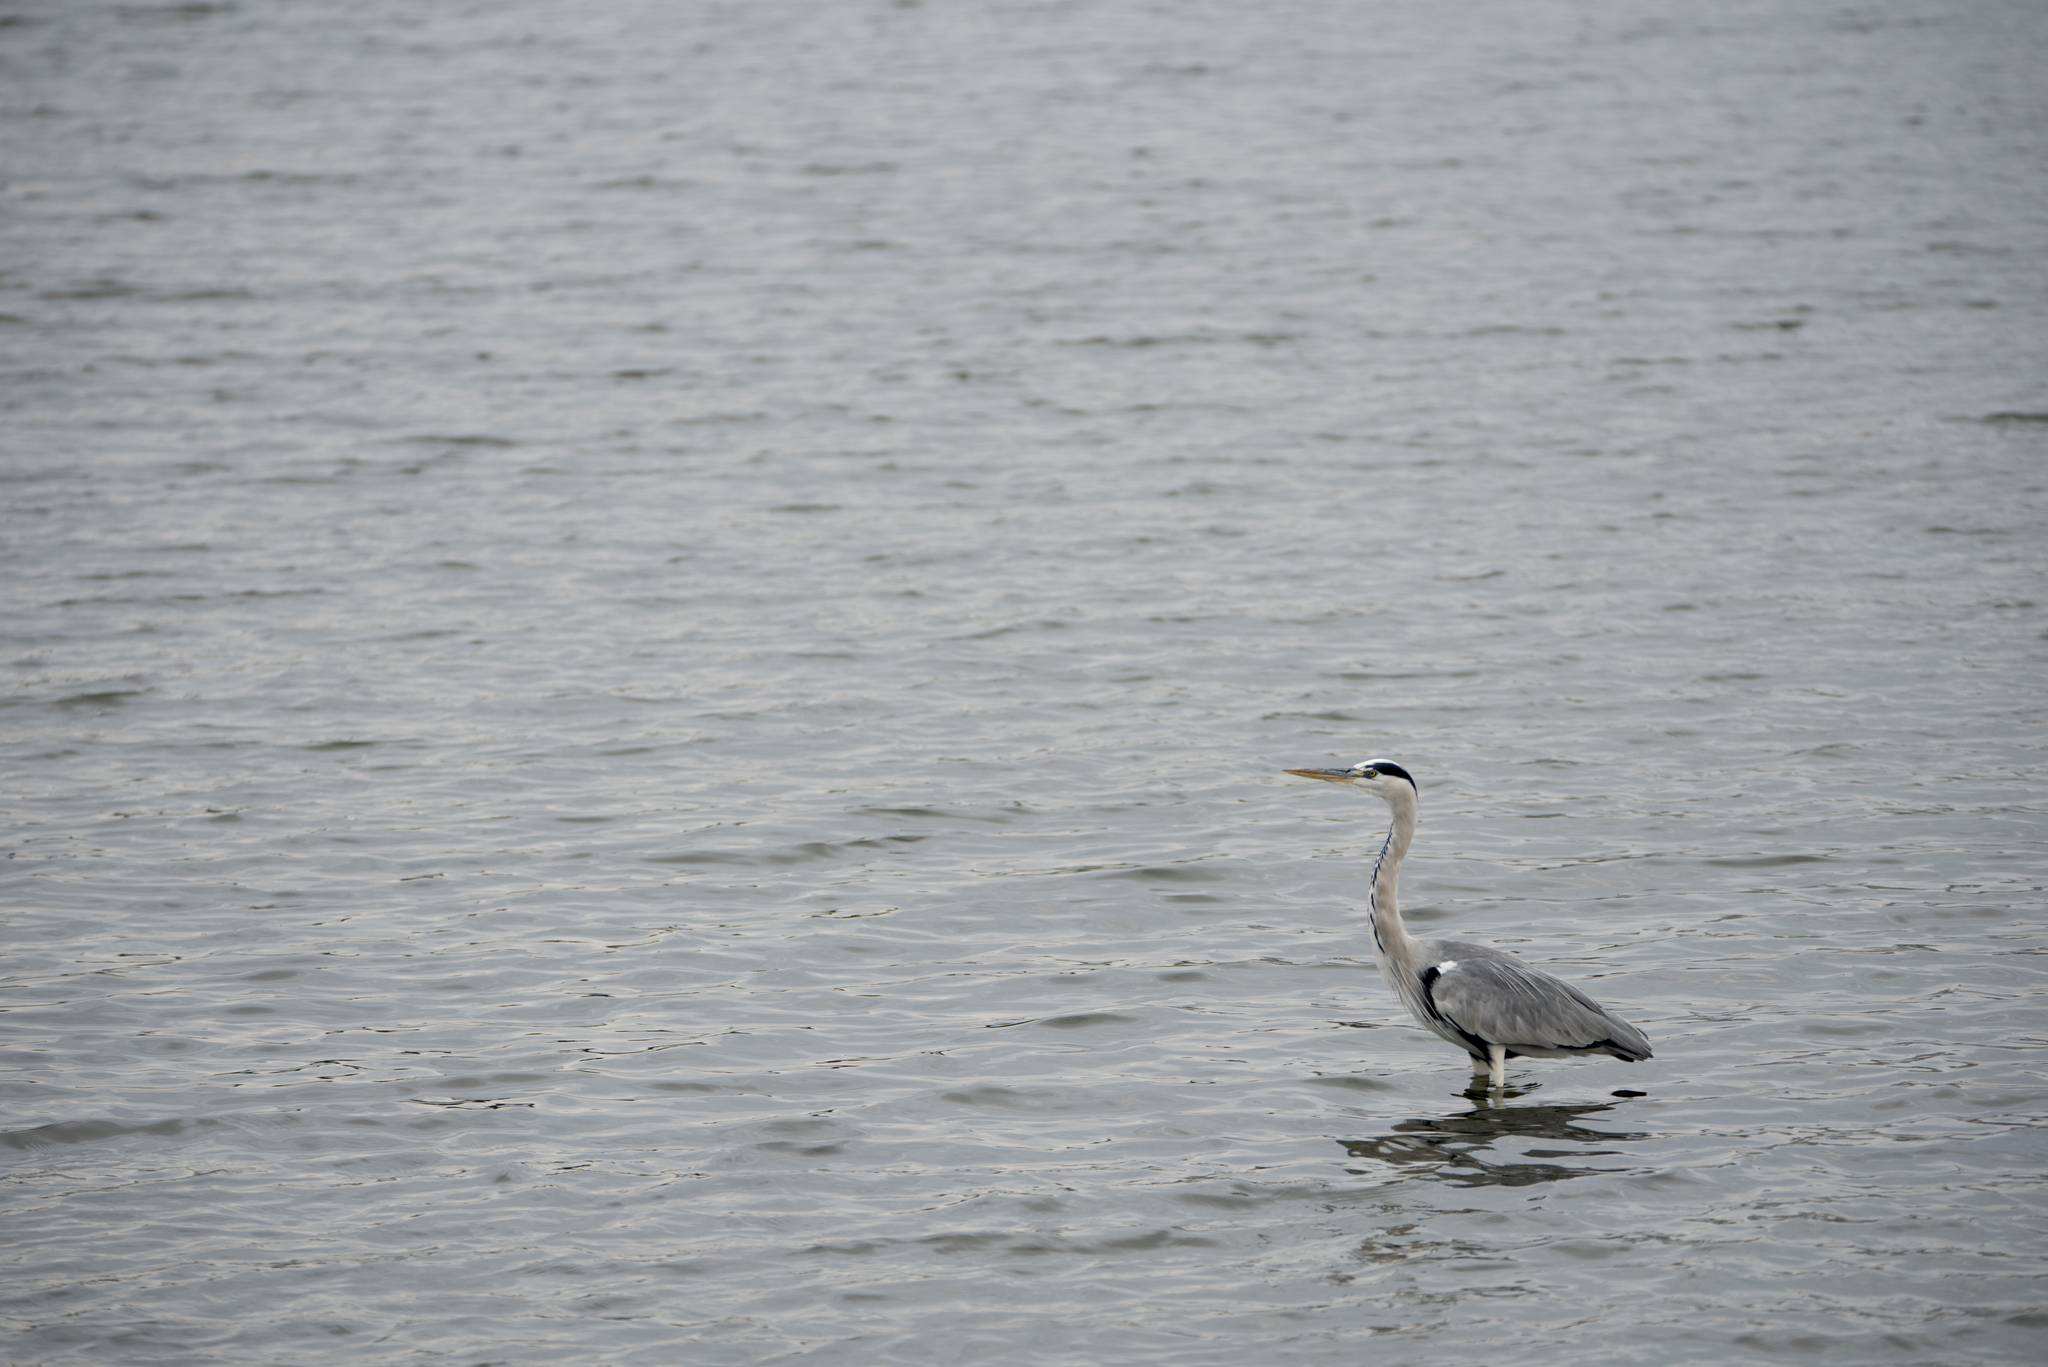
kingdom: Animalia
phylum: Chordata
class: Aves
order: Pelecaniformes
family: Ardeidae
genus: Ardea
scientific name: Ardea cinerea
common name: Grey heron
